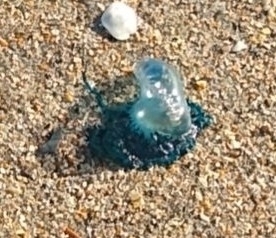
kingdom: Animalia
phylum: Cnidaria
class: Hydrozoa
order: Siphonophorae
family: Physaliidae
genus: Physalia
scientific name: Physalia physalis
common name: Portuguese man-of-war
